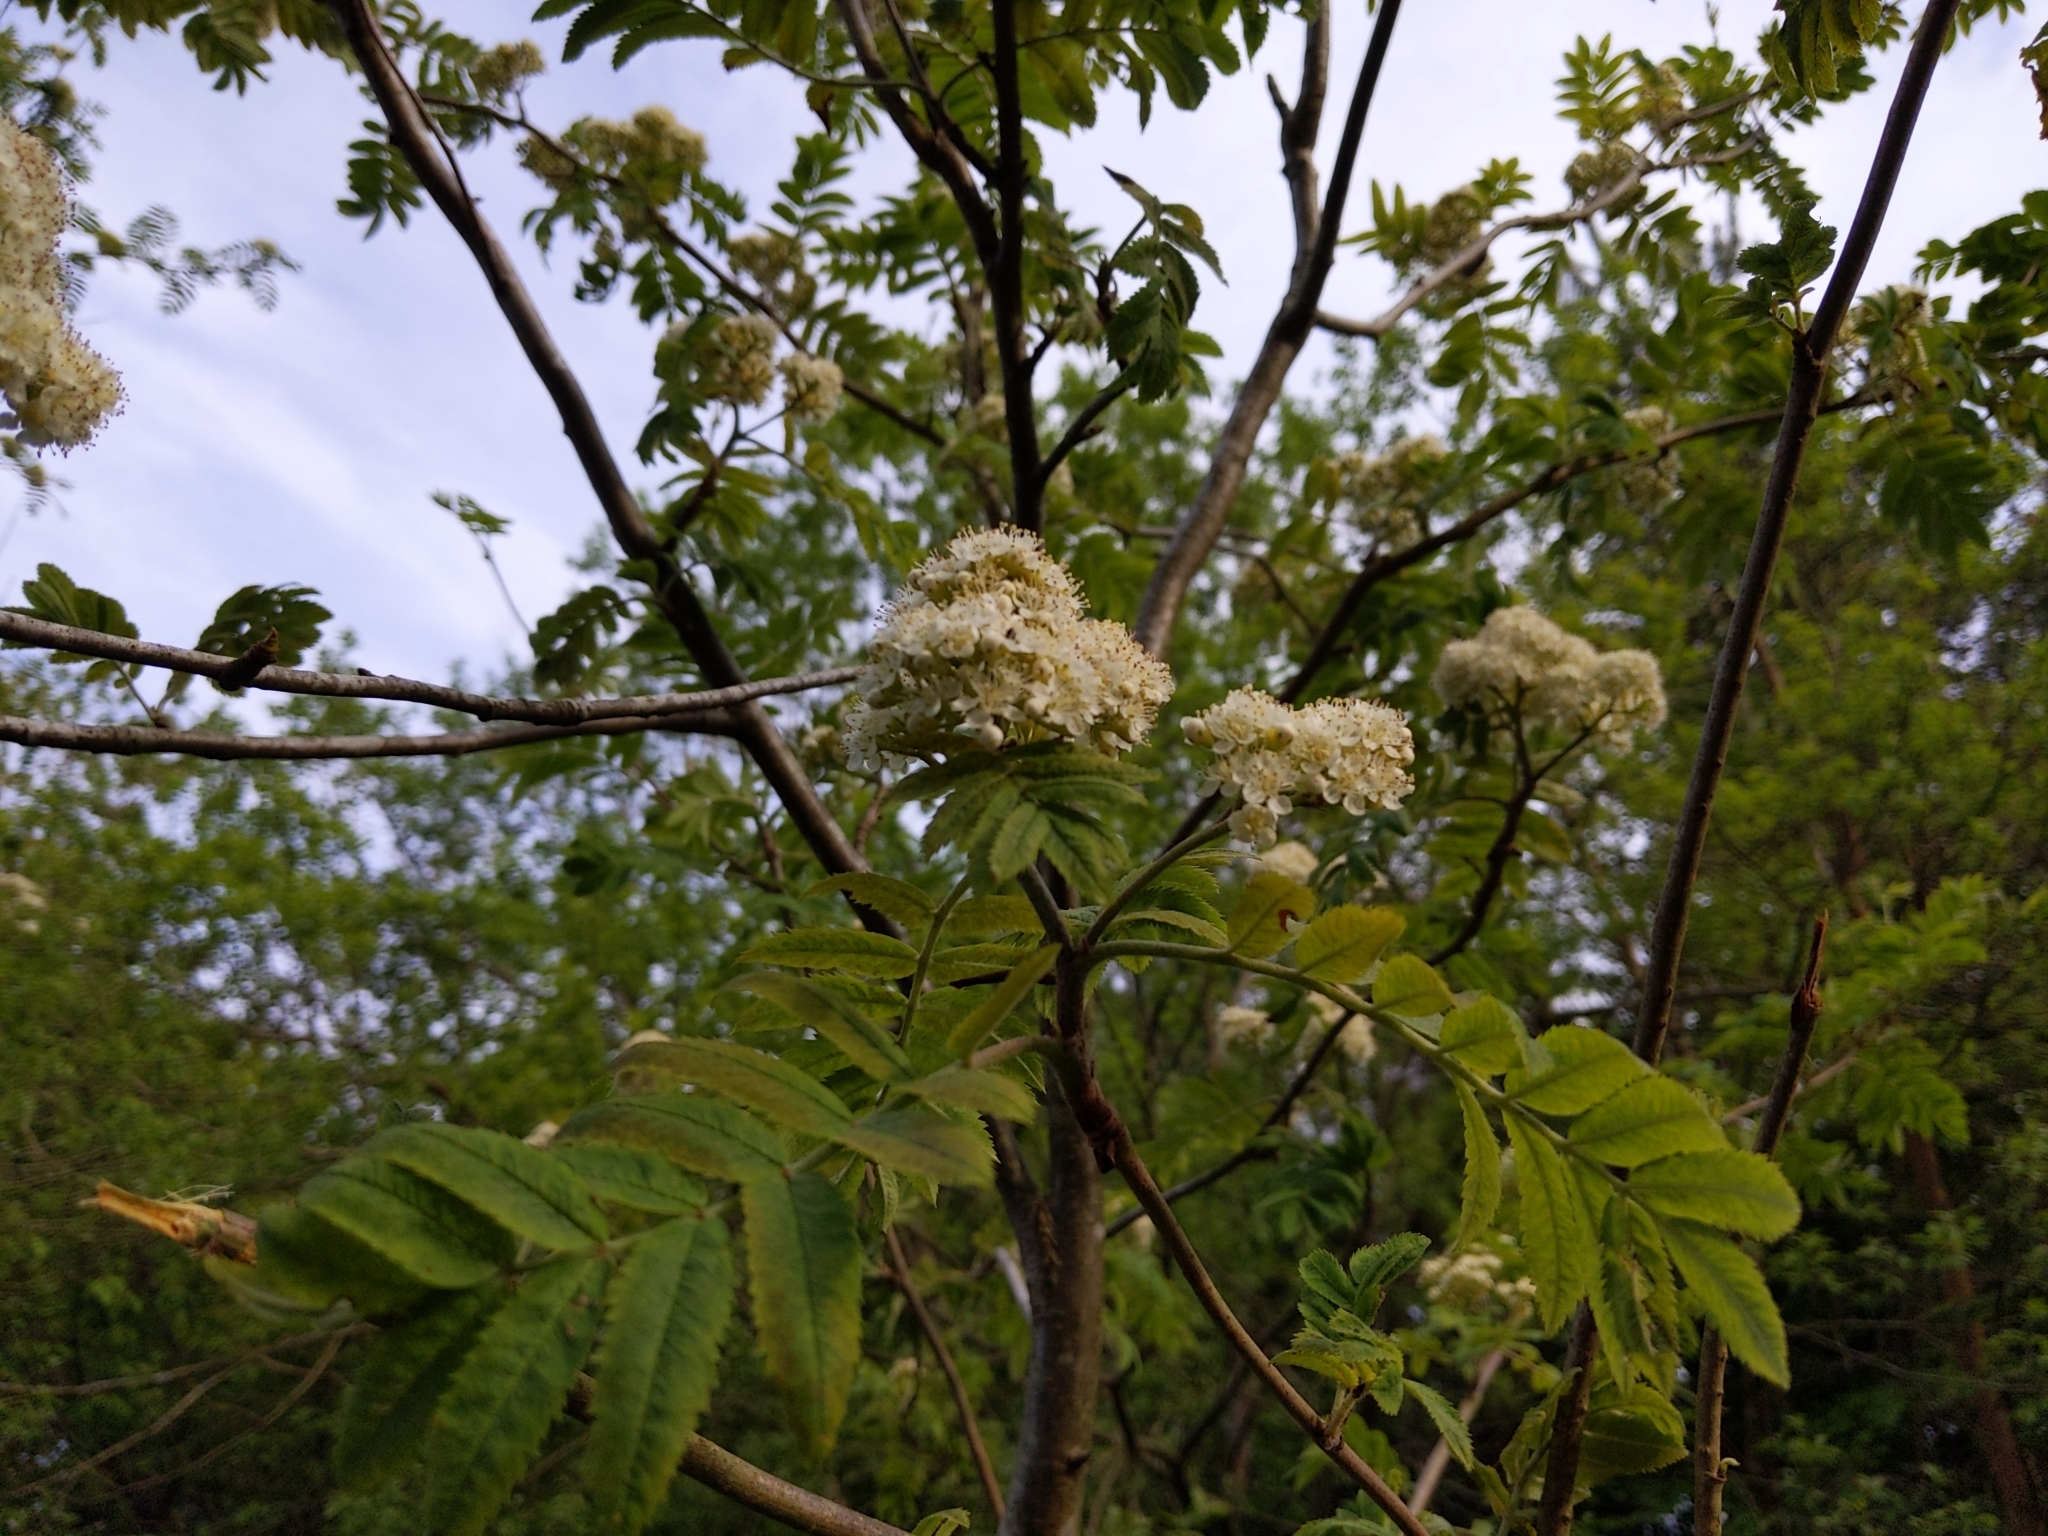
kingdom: Plantae
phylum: Tracheophyta
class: Magnoliopsida
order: Rosales
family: Rosaceae
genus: Sorbus
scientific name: Sorbus aucuparia
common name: Rowan
